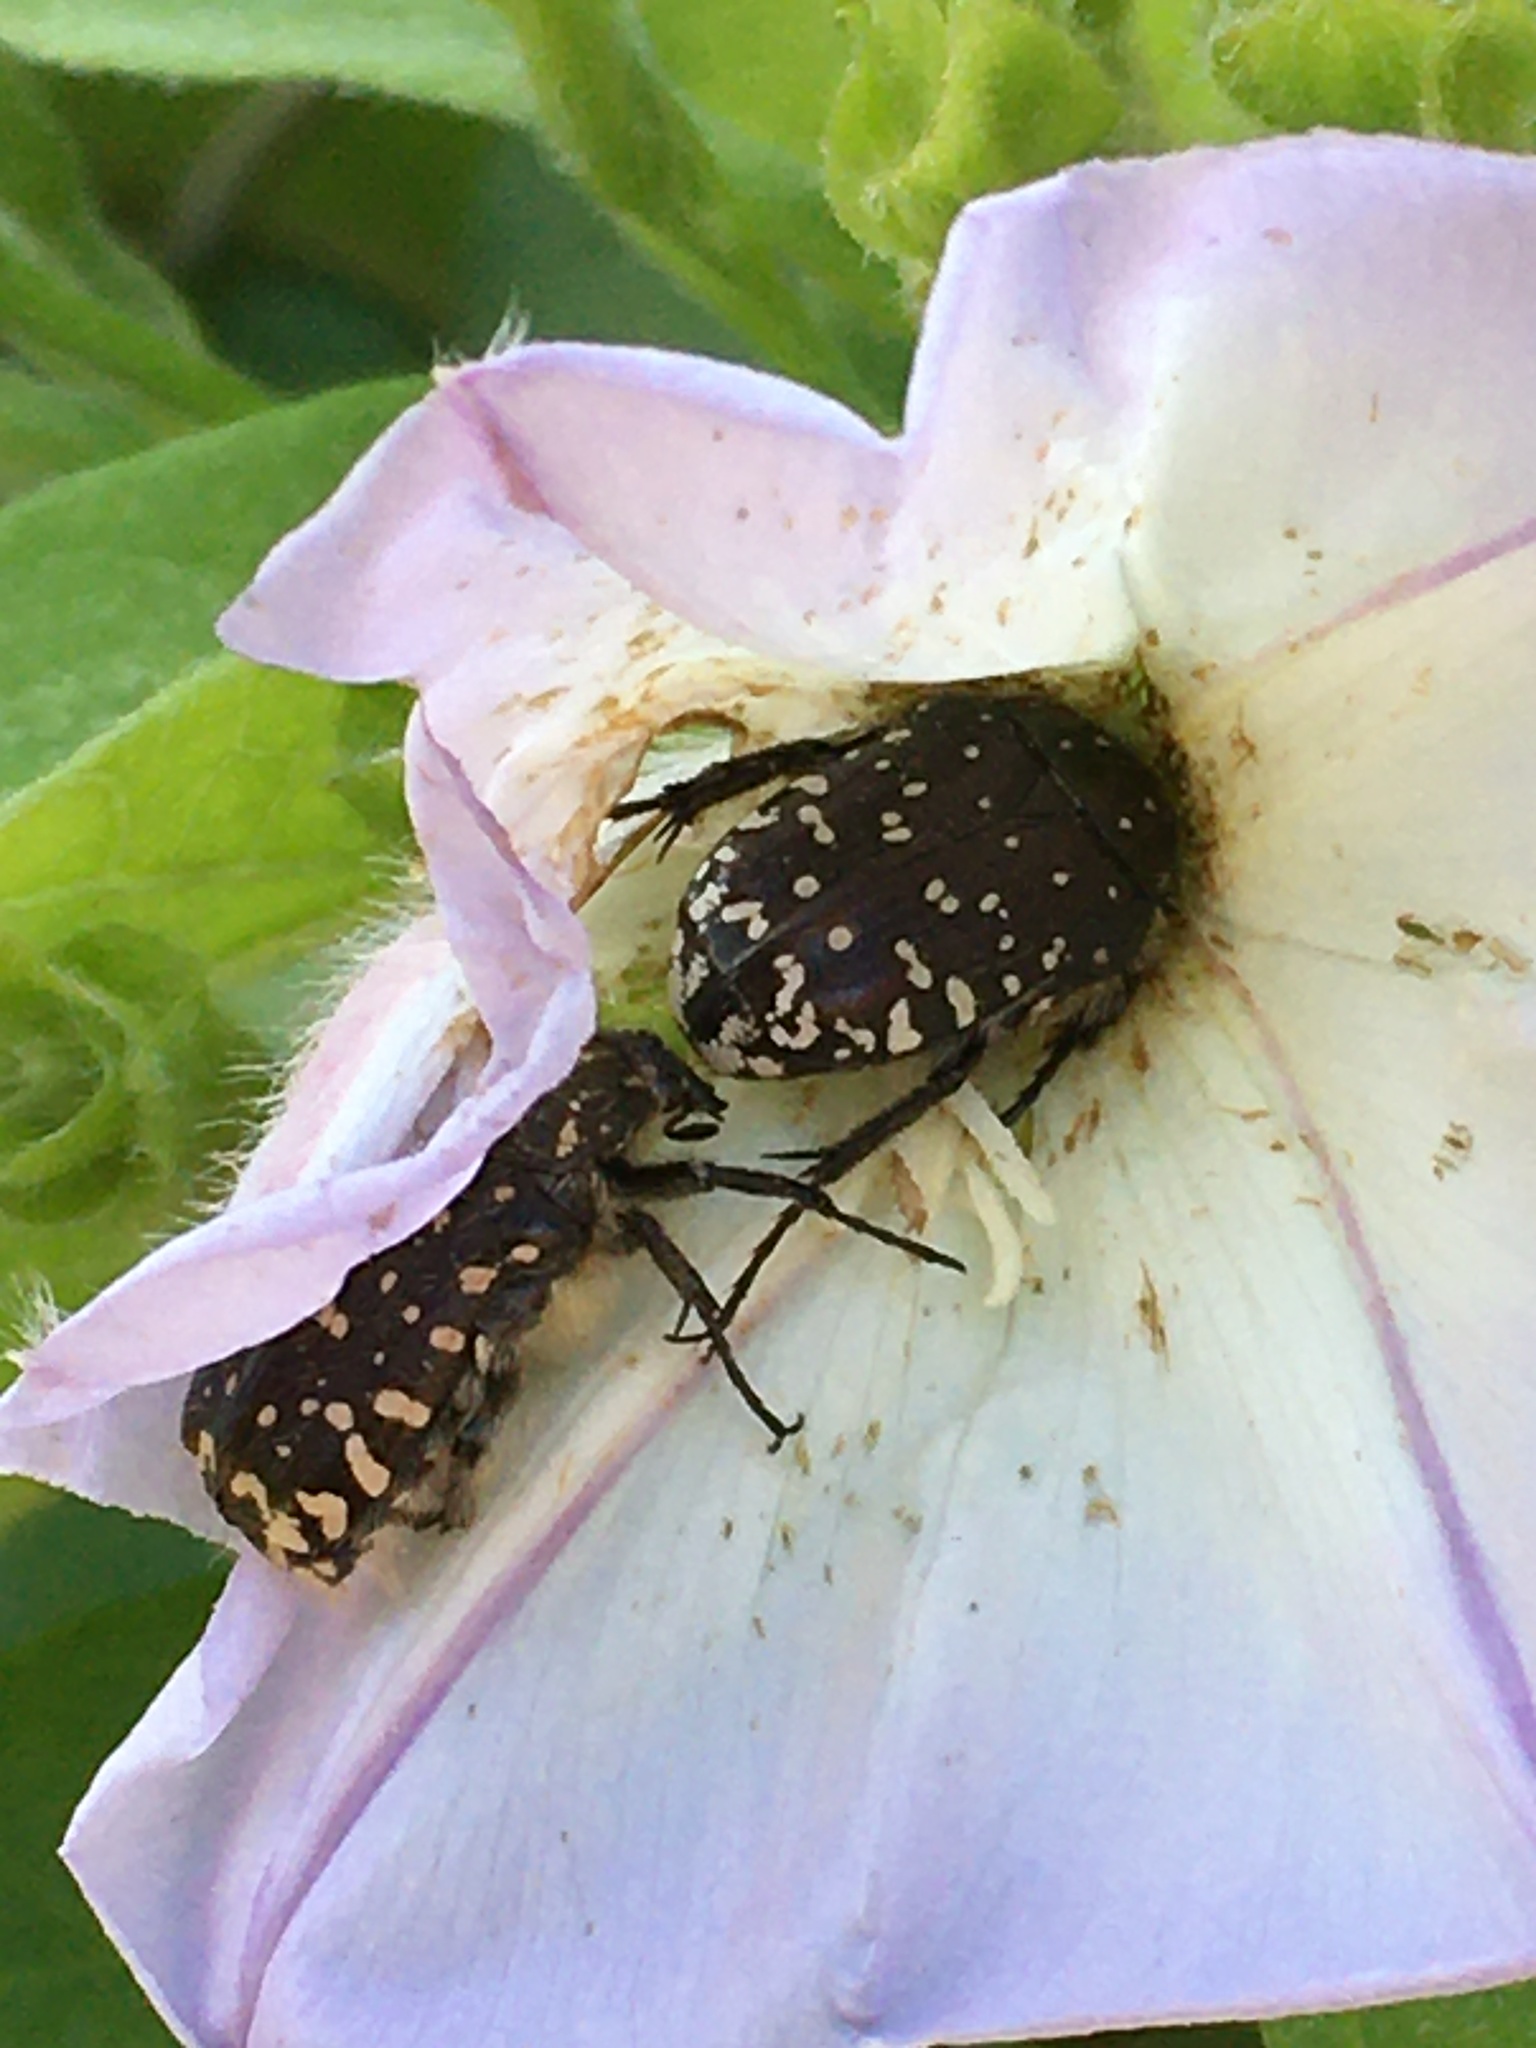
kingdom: Animalia
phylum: Arthropoda
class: Insecta
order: Coleoptera
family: Scarabaeidae
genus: Oxythyrea
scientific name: Oxythyrea funesta
